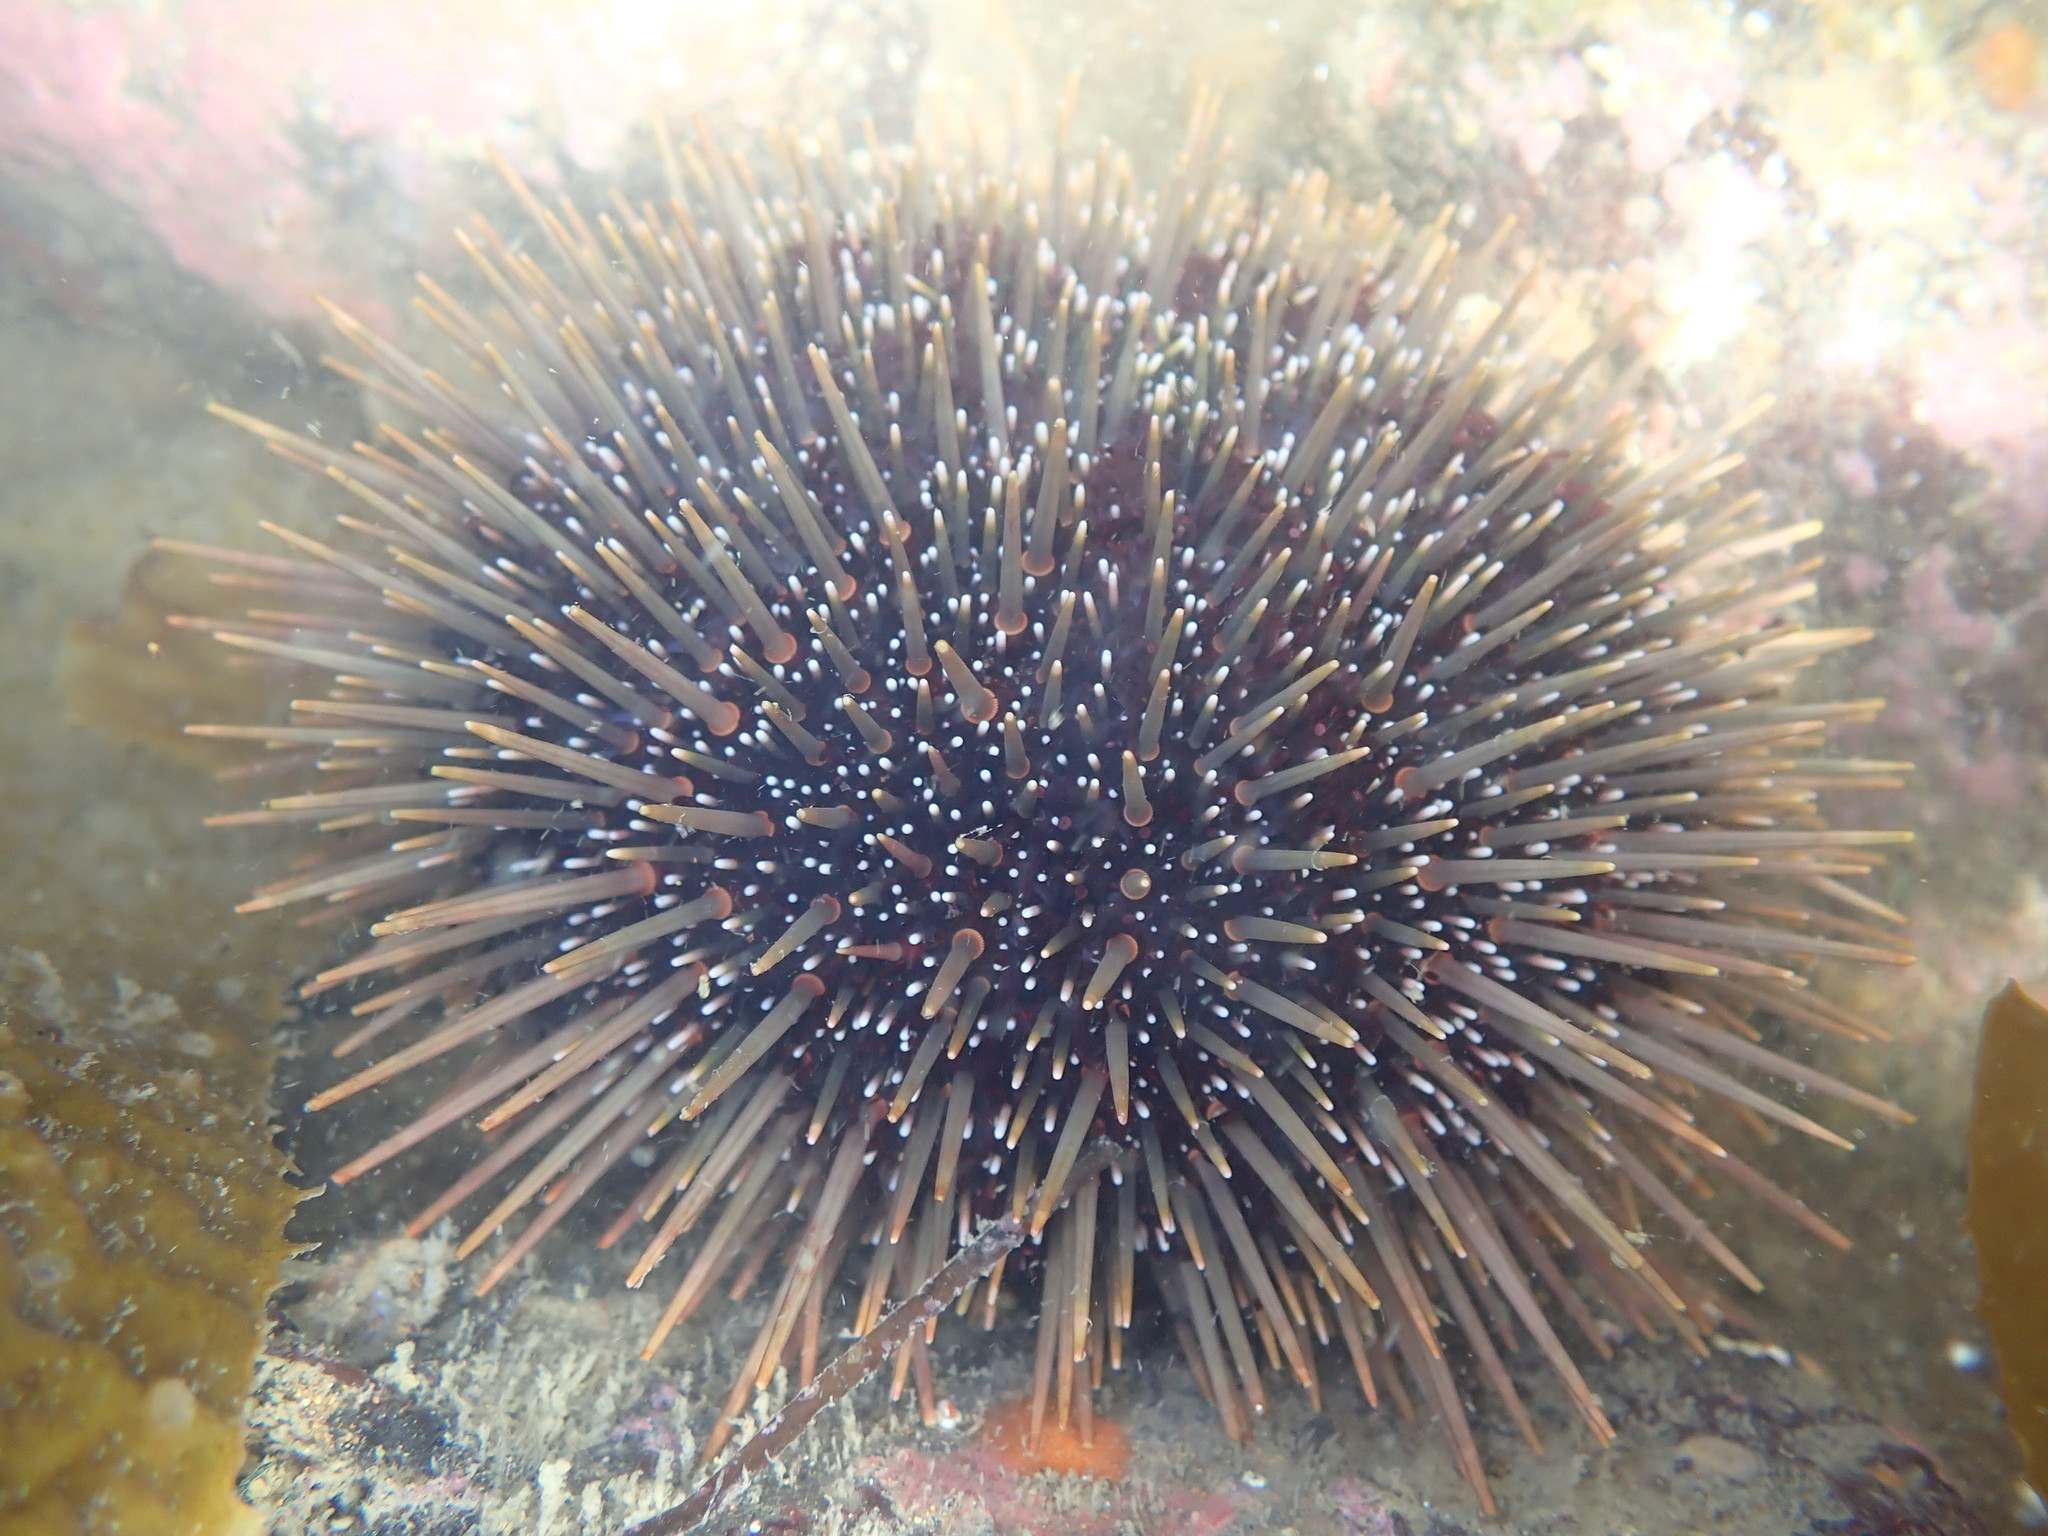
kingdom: Animalia
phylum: Echinodermata
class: Echinoidea
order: Camarodonta
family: Echinometridae
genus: Evechinus
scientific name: Evechinus chloroticus
